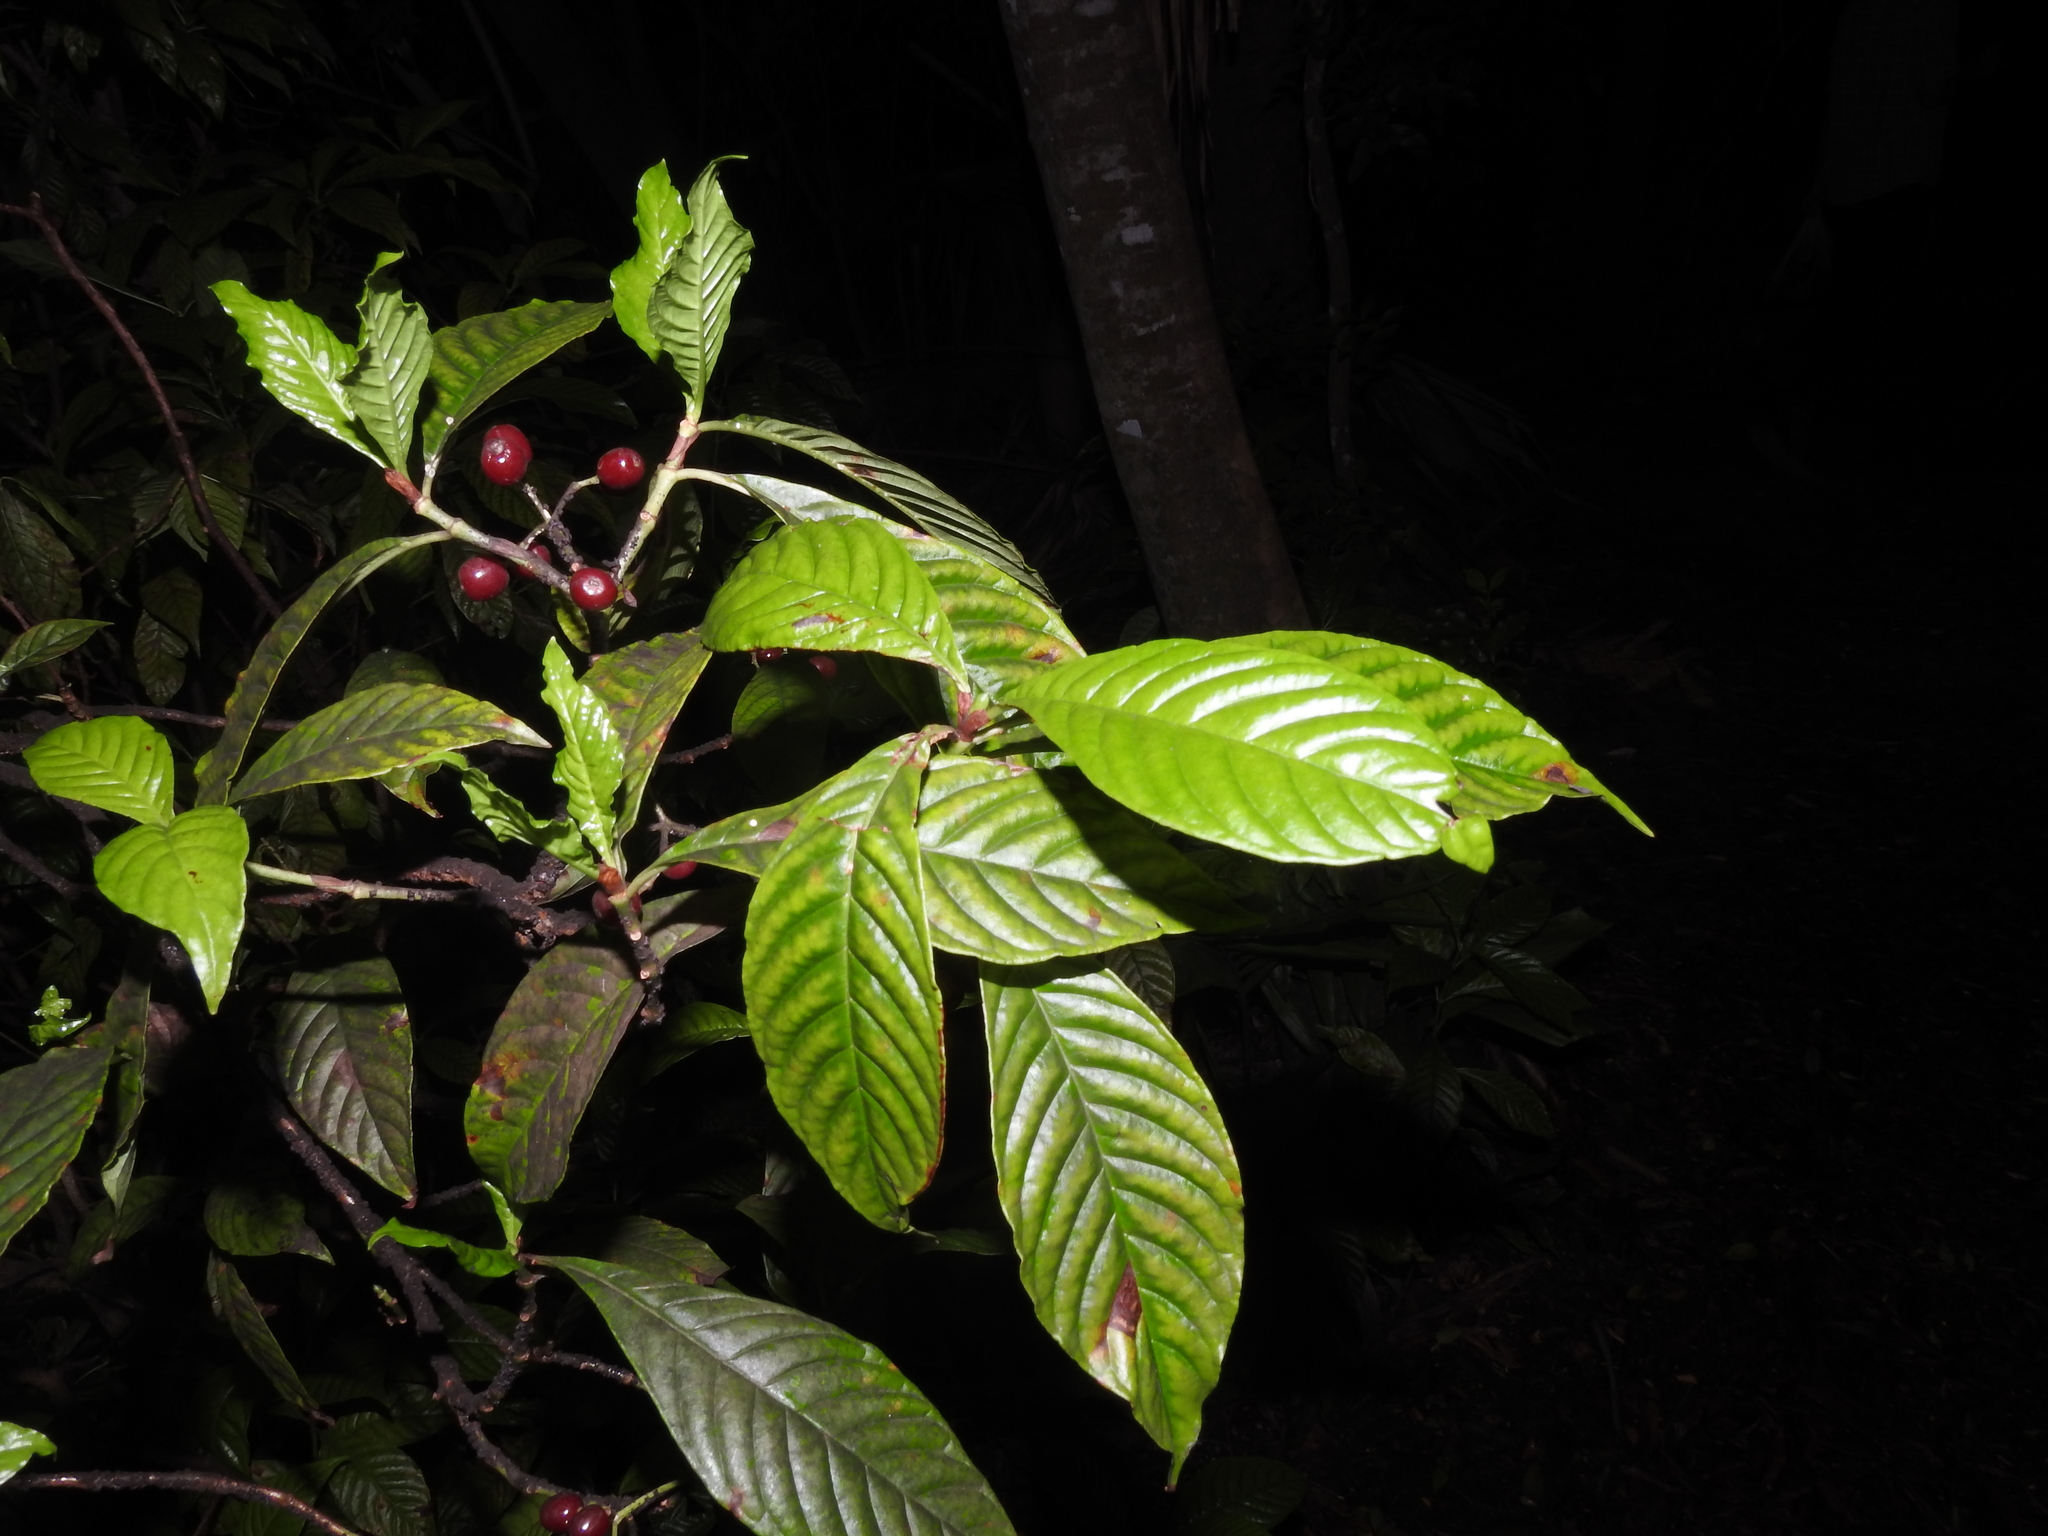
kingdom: Plantae
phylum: Tracheophyta
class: Magnoliopsida
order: Gentianales
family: Rubiaceae
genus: Psychotria
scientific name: Psychotria nervosa
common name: Bastard cankerberry
